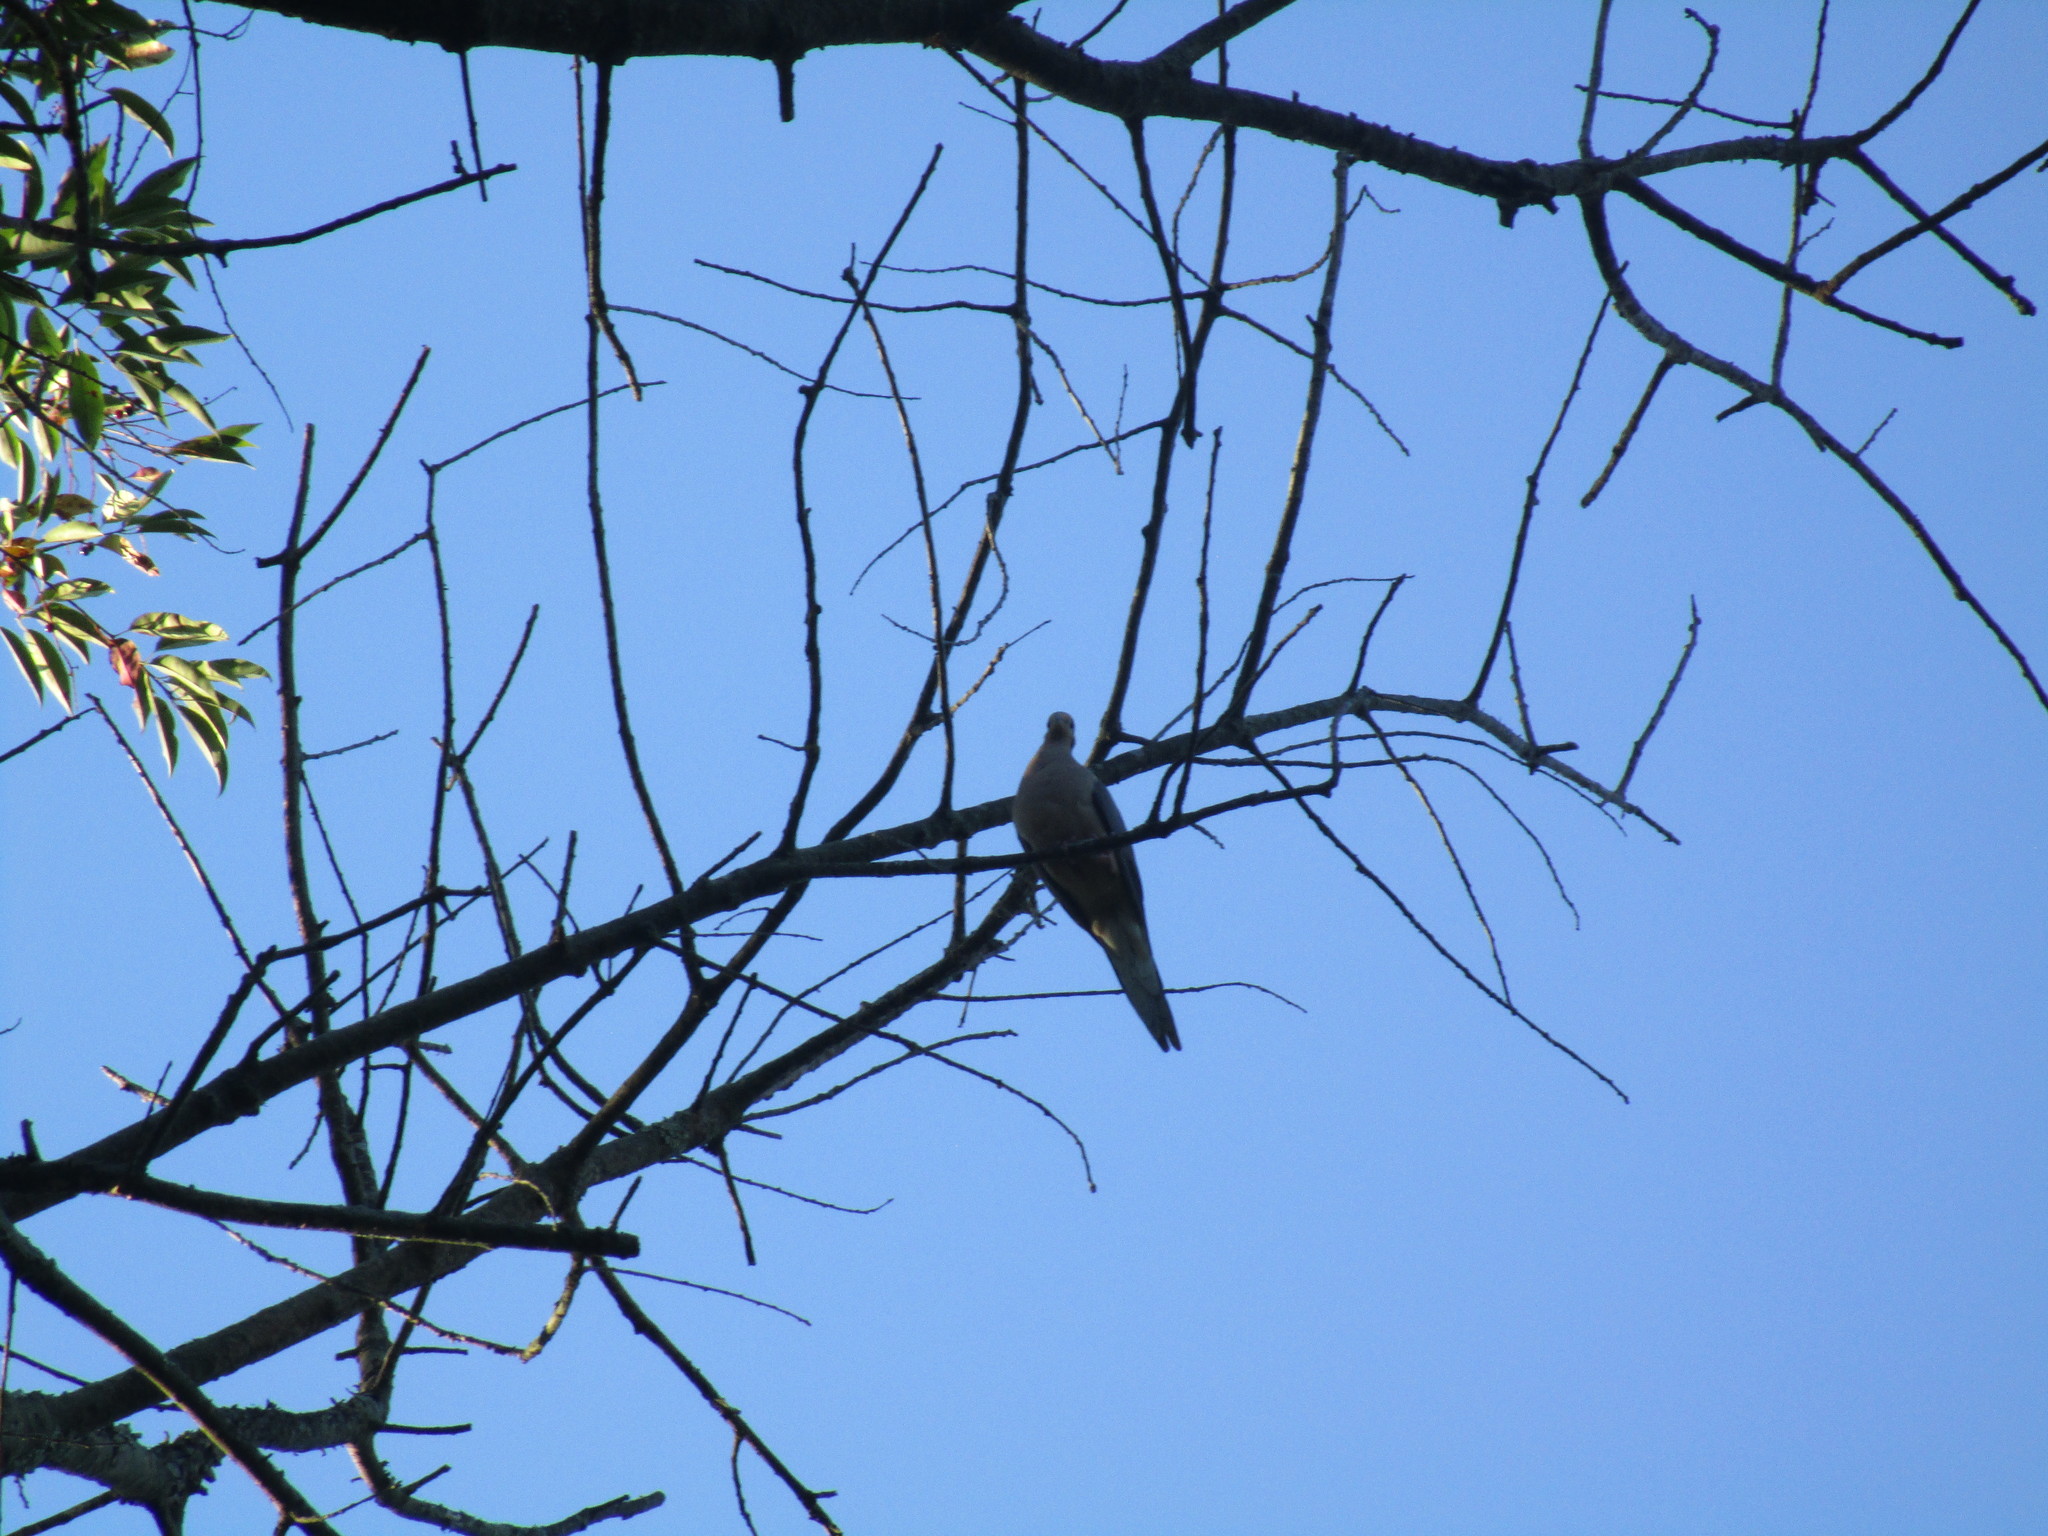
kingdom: Animalia
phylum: Chordata
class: Aves
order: Columbiformes
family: Columbidae
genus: Zenaida
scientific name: Zenaida macroura
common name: Mourning dove
